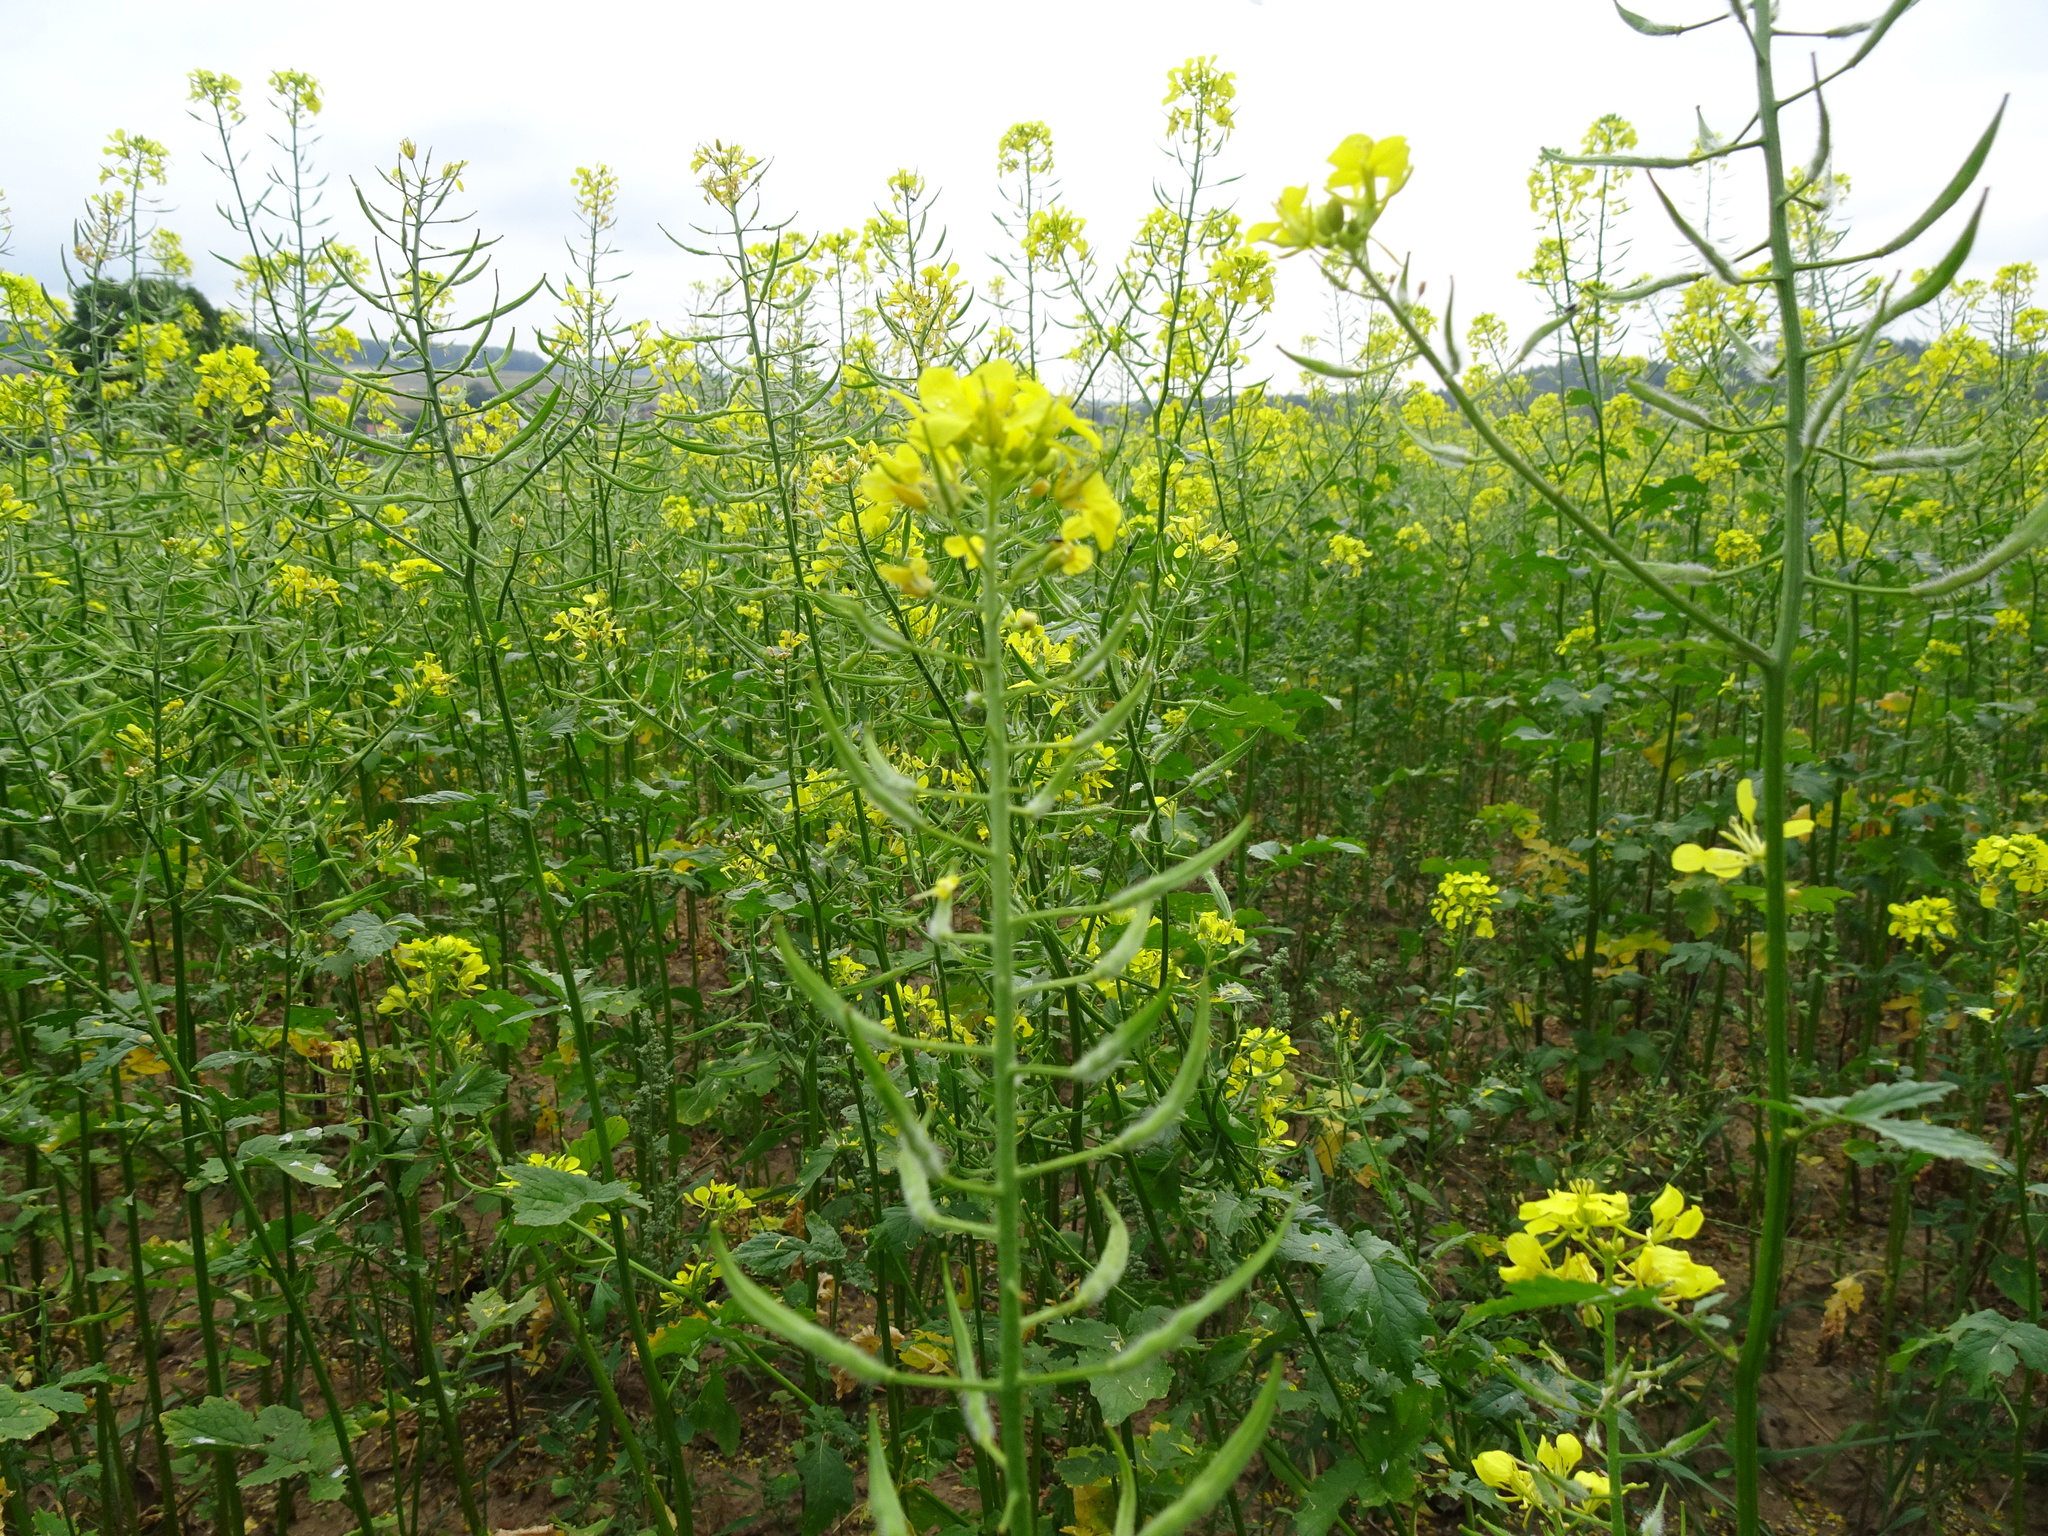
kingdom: Plantae
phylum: Tracheophyta
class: Magnoliopsida
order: Brassicales
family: Brassicaceae
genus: Sinapis
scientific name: Sinapis alba
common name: White mustard
